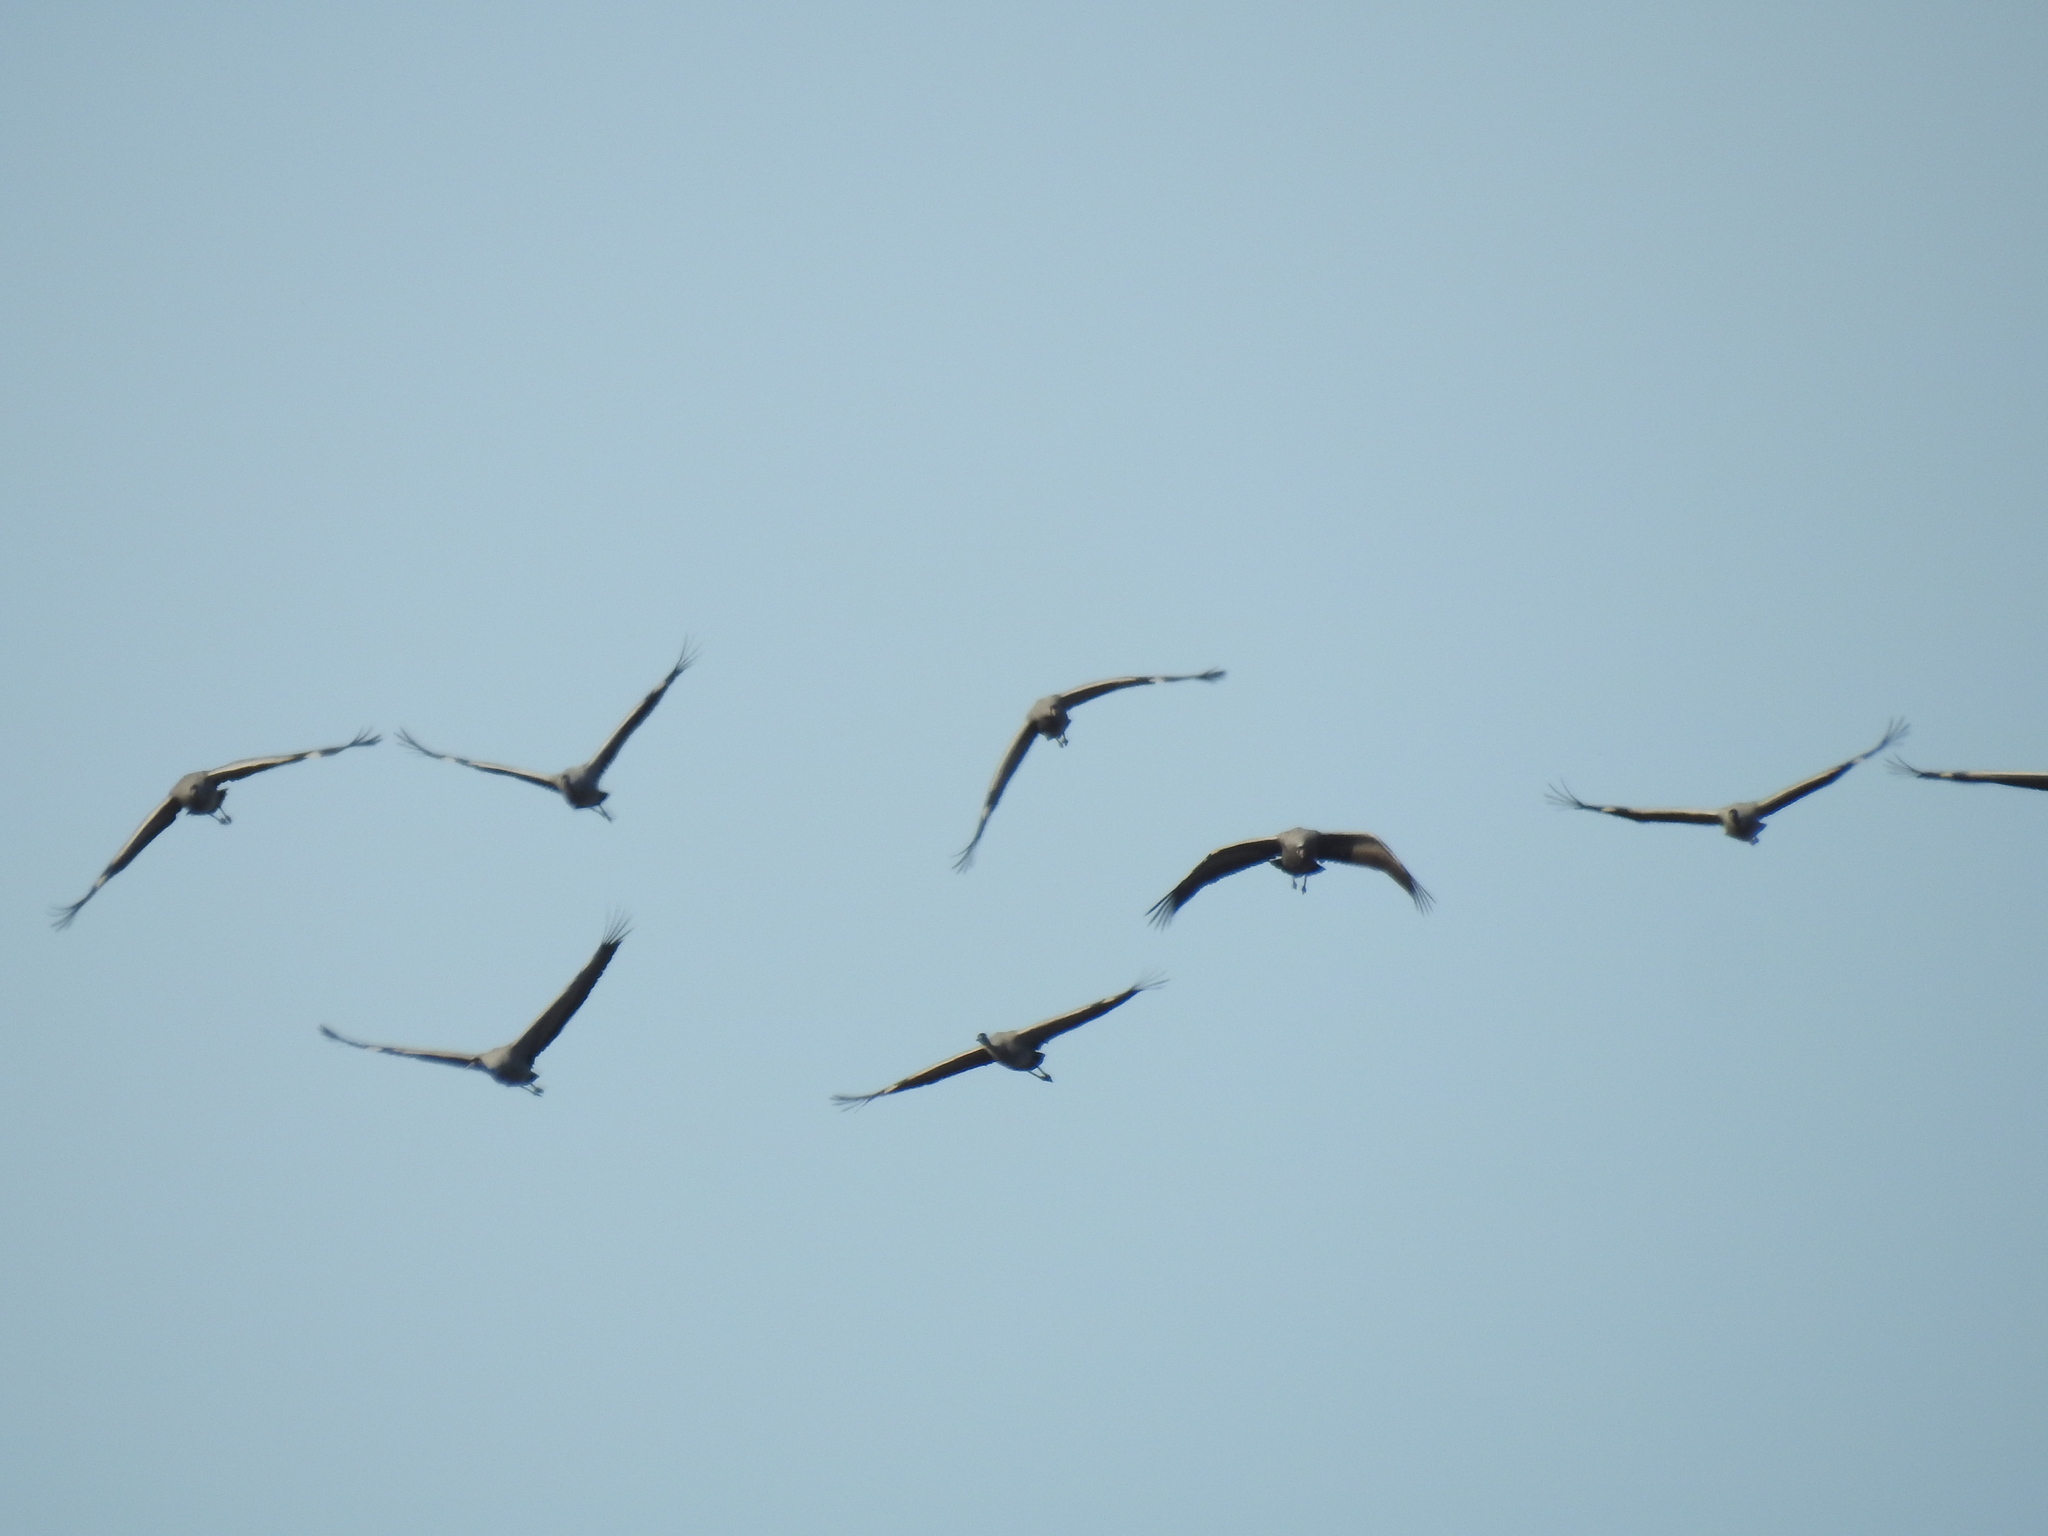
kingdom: Animalia
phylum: Chordata
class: Aves
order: Gruiformes
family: Gruidae
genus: Grus
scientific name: Grus grus
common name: Common crane
